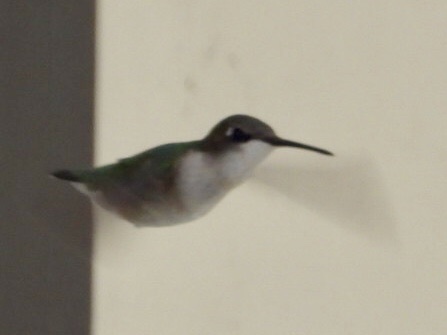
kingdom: Animalia
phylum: Chordata
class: Aves
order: Apodiformes
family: Trochilidae
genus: Archilochus
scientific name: Archilochus colubris
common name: Ruby-throated hummingbird
